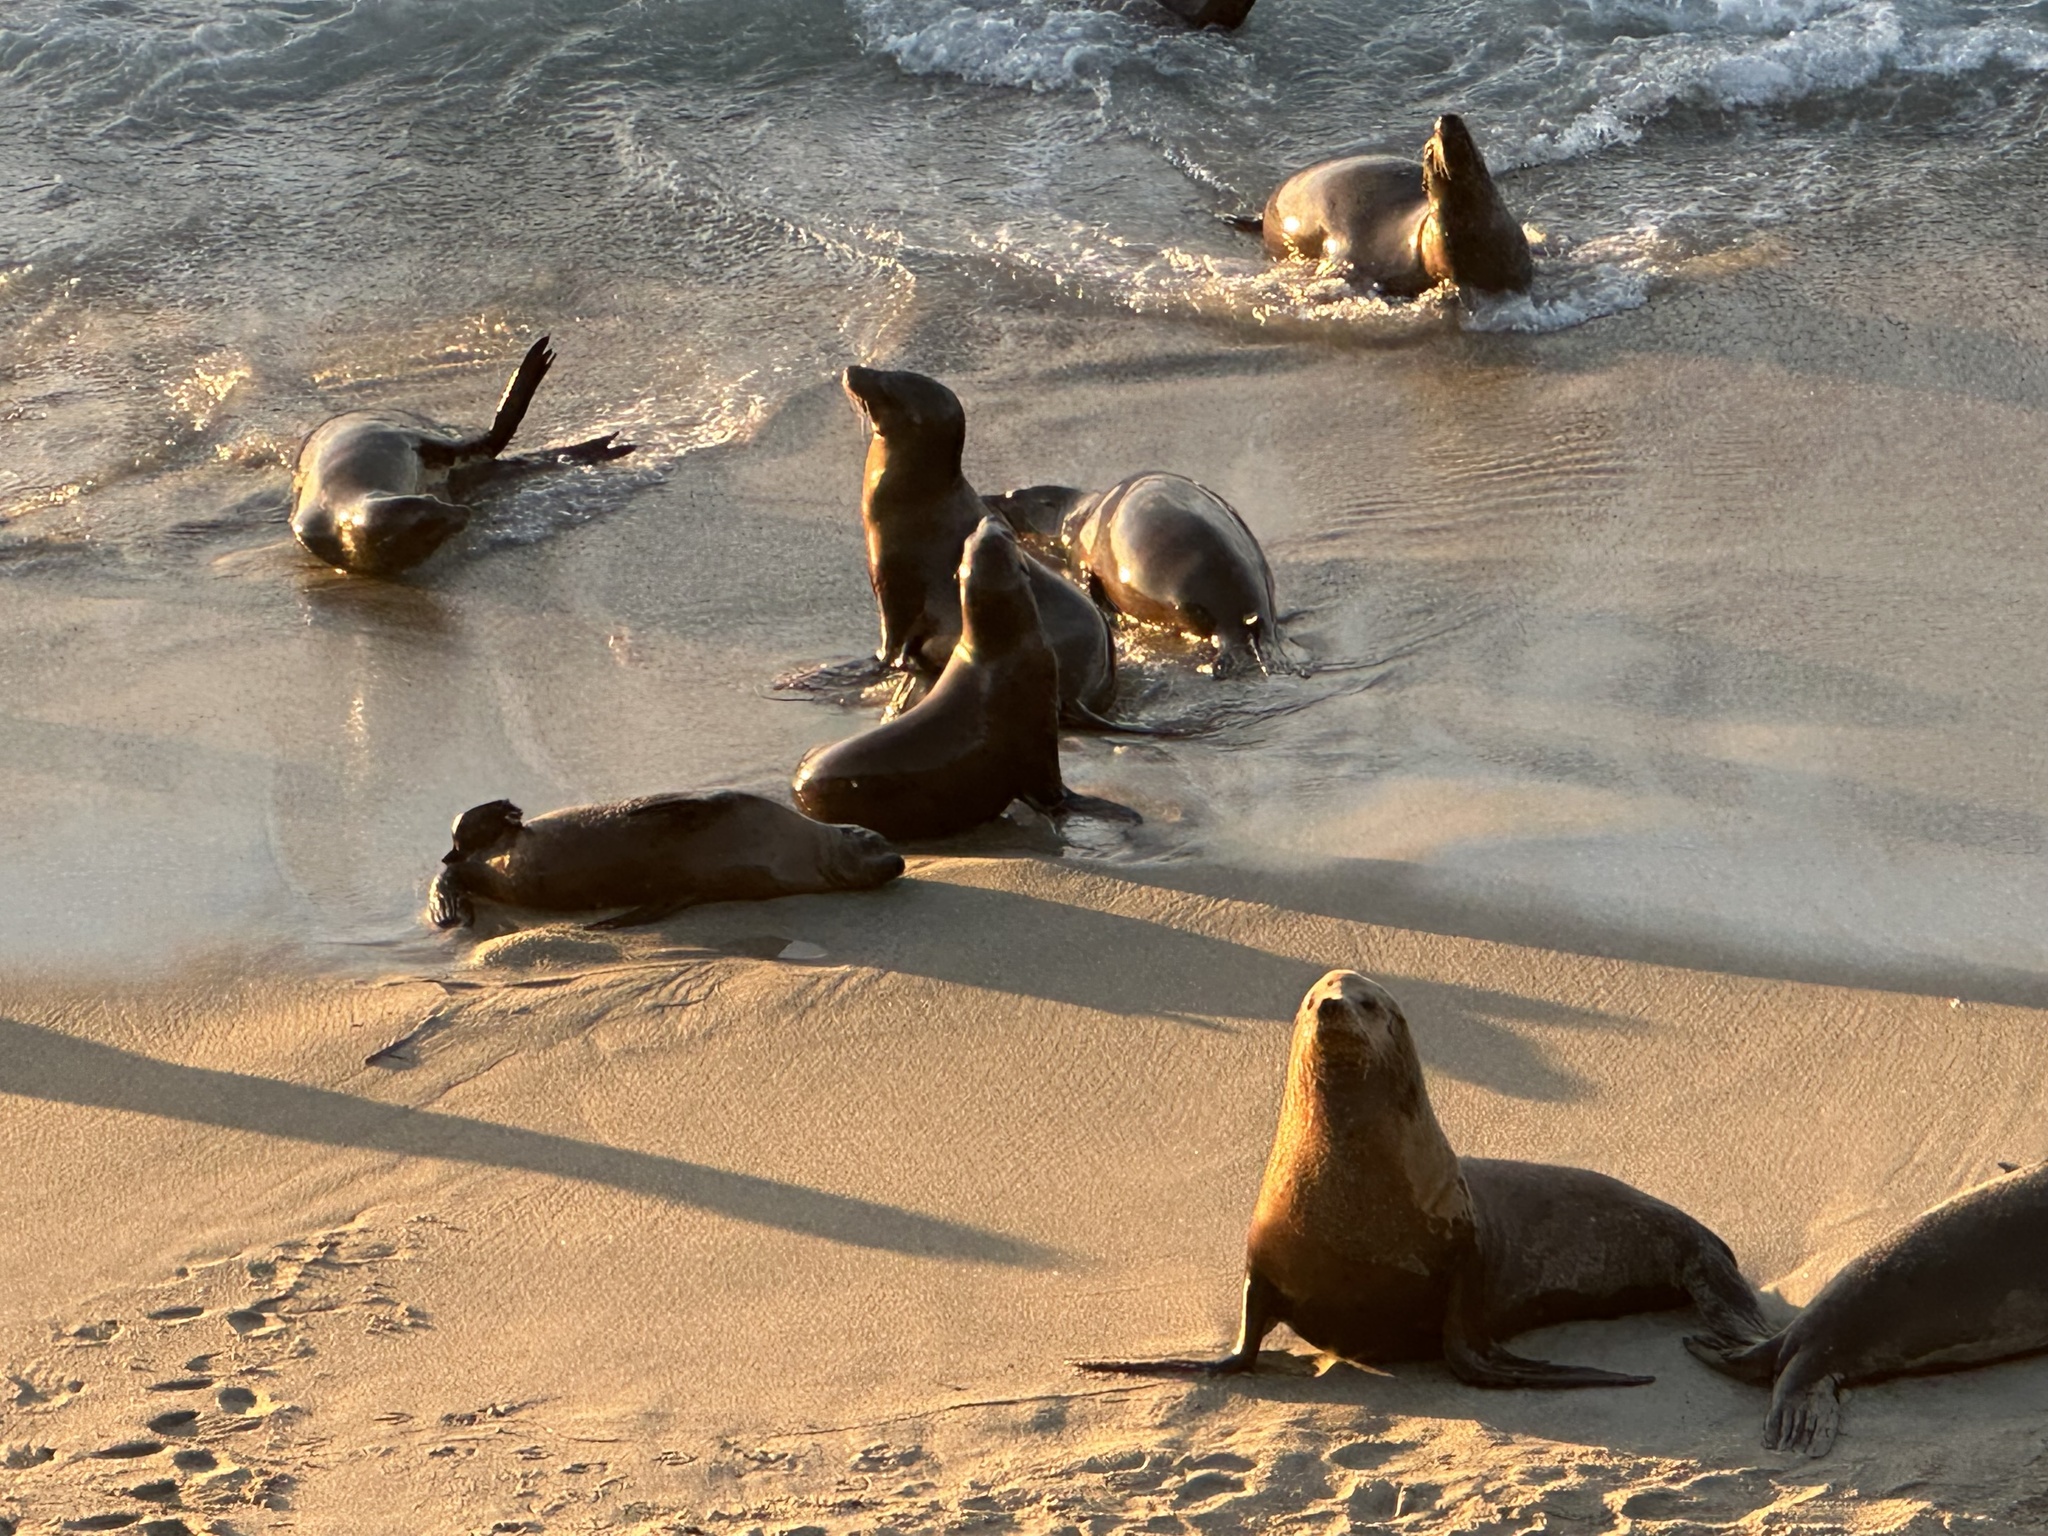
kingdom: Animalia
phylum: Chordata
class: Mammalia
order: Carnivora
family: Otariidae
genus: Zalophus
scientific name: Zalophus californianus
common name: California sea lion
